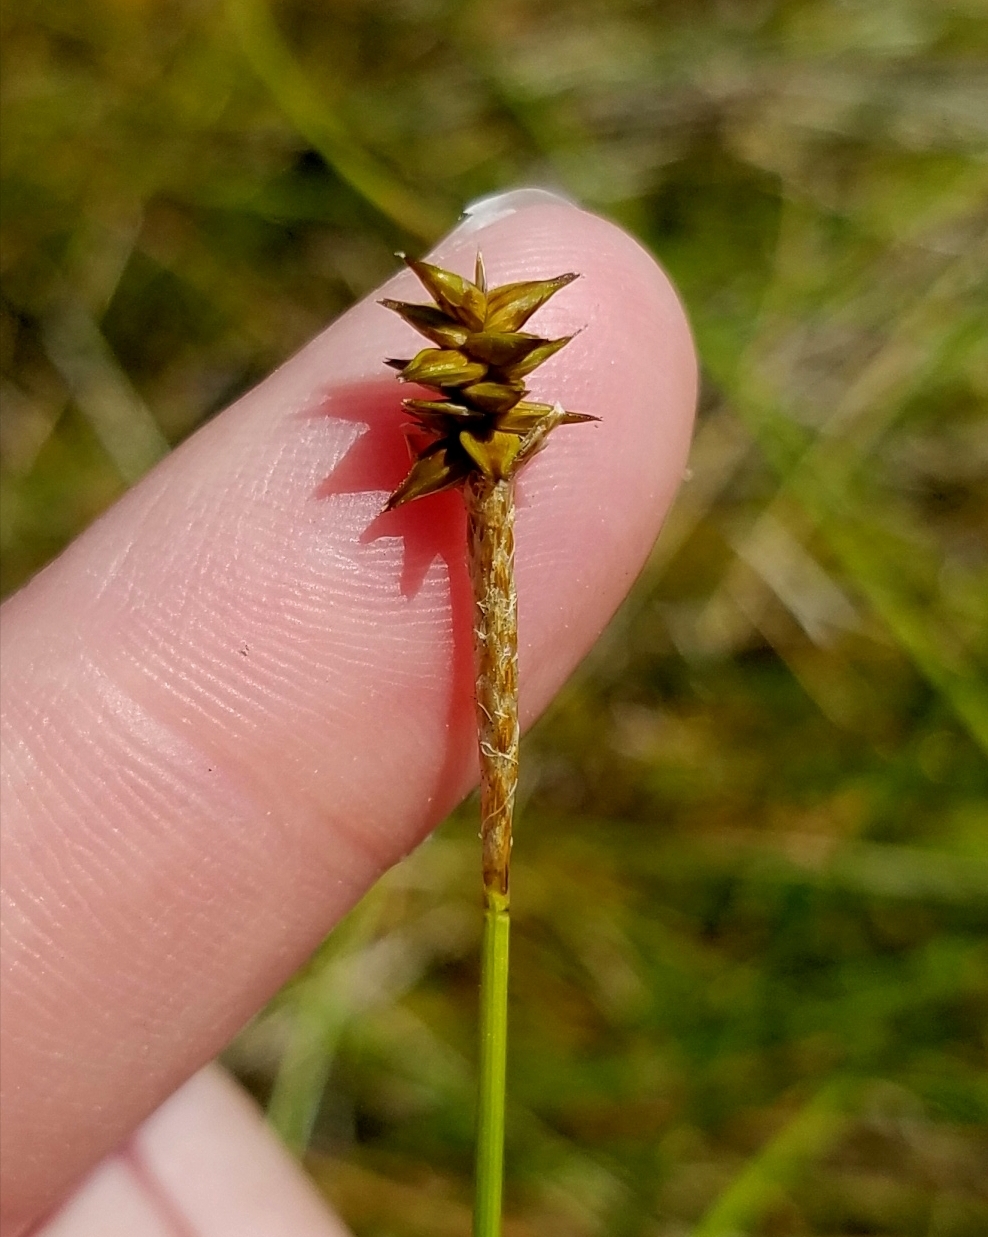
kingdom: Plantae
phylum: Tracheophyta
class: Liliopsida
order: Poales
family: Cyperaceae
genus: Carex
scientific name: Carex exilis
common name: Coastal sedge
